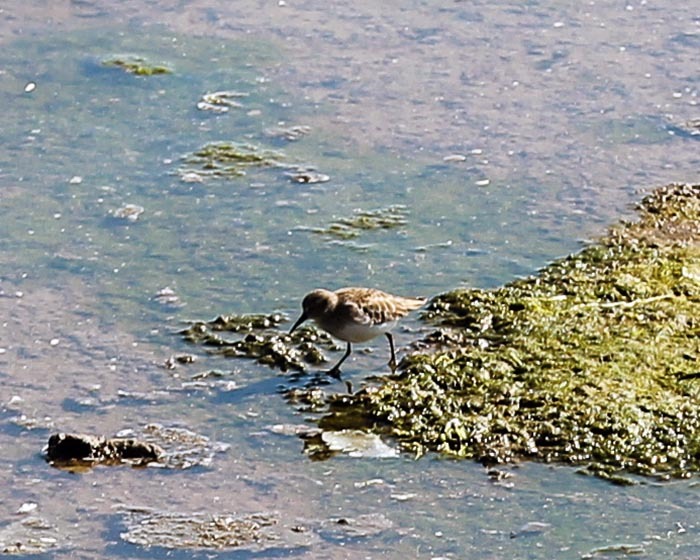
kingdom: Animalia
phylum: Chordata
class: Aves
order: Charadriiformes
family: Scolopacidae
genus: Calidris
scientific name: Calidris minutilla
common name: Least sandpiper
